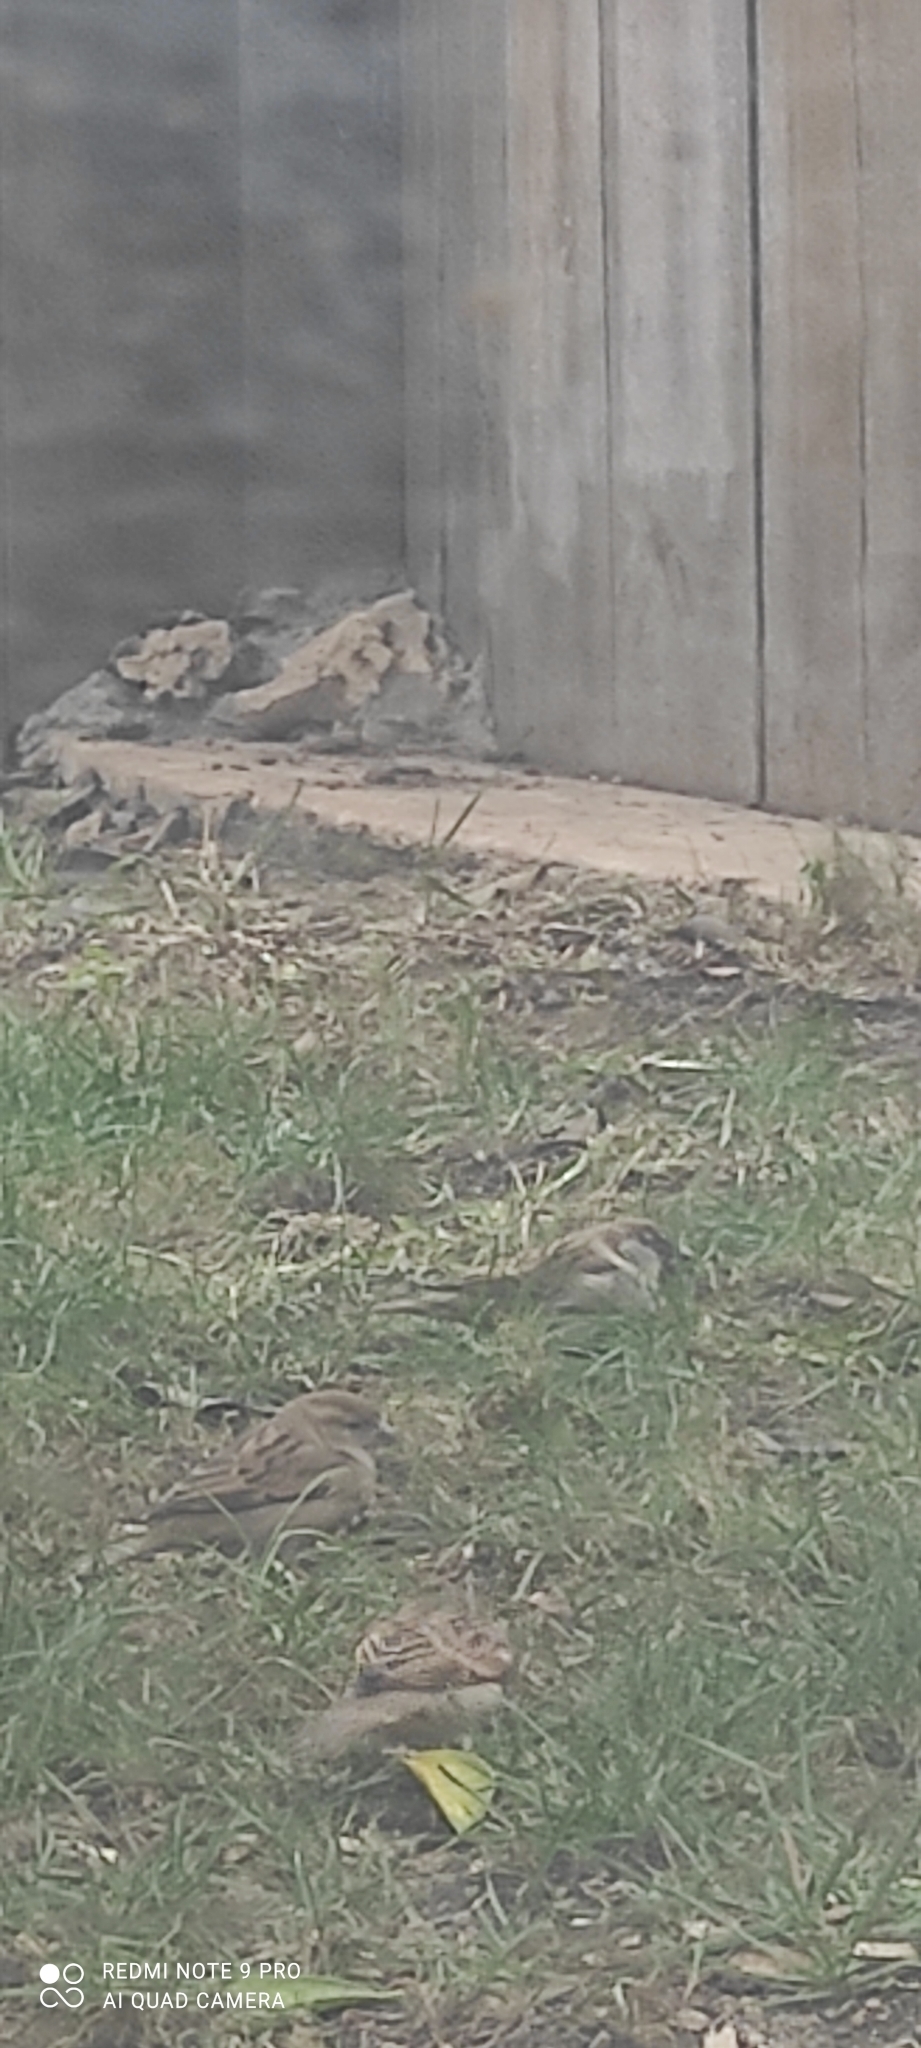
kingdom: Animalia
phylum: Chordata
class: Aves
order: Passeriformes
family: Passeridae
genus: Passer
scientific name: Passer domesticus
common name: House sparrow
